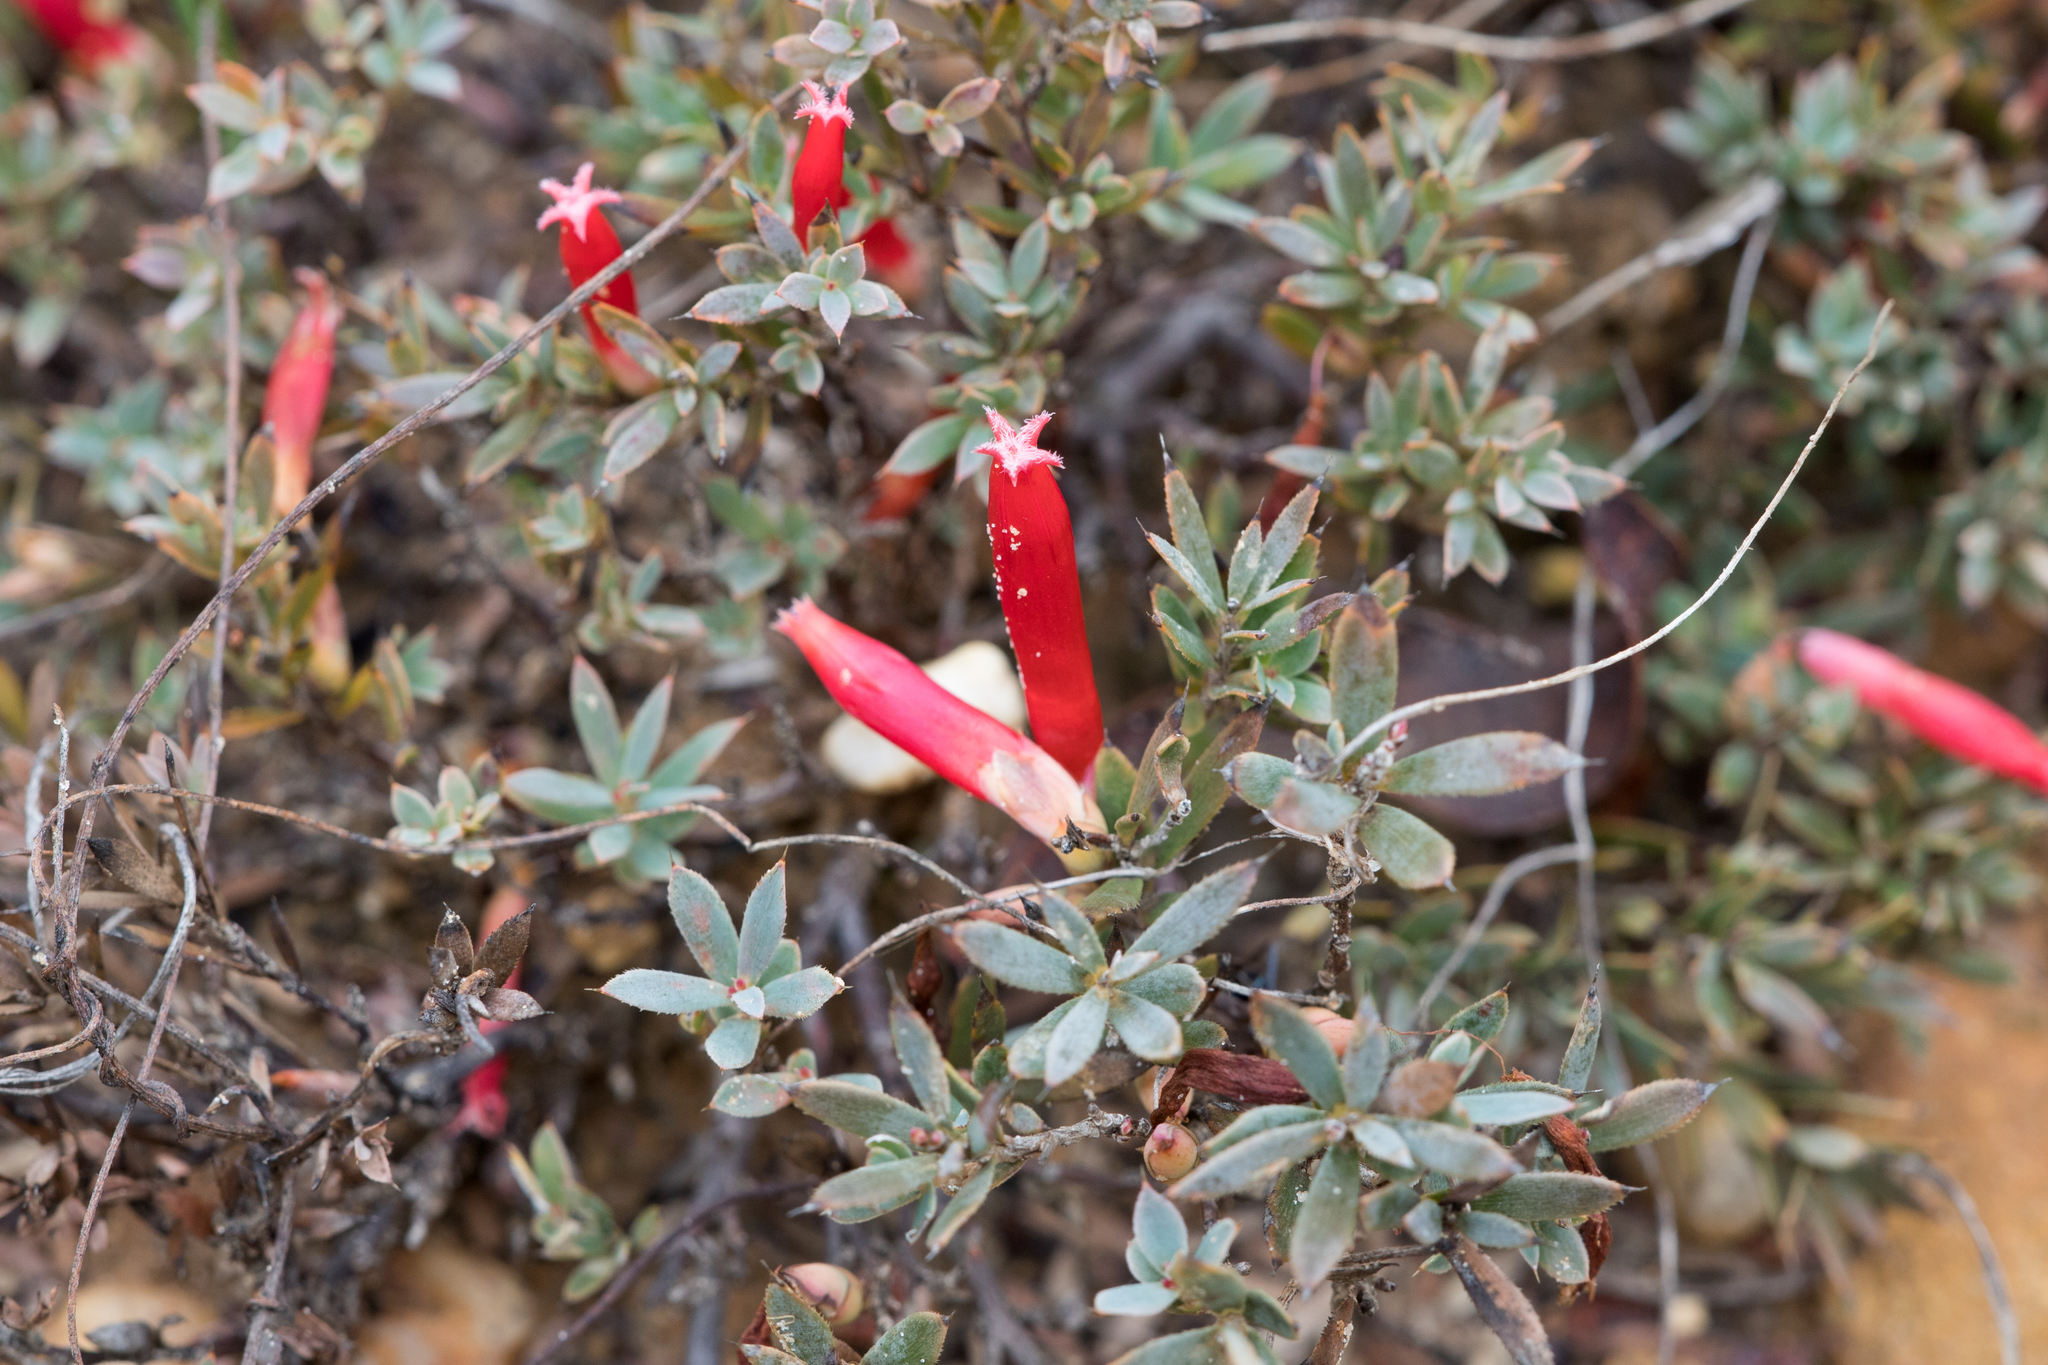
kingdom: Plantae
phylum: Tracheophyta
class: Magnoliopsida
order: Ericales
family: Ericaceae
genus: Styphelia
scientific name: Styphelia humifusa
